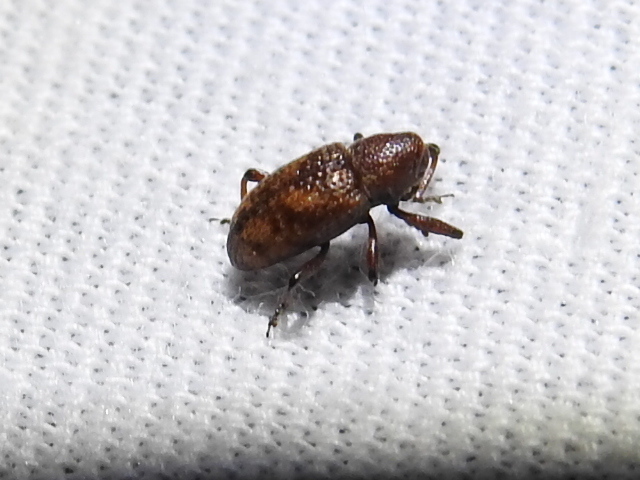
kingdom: Animalia
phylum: Arthropoda
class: Insecta
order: Coleoptera
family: Curculionidae
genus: Tyloderma
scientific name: Tyloderma sphaerocarpae
